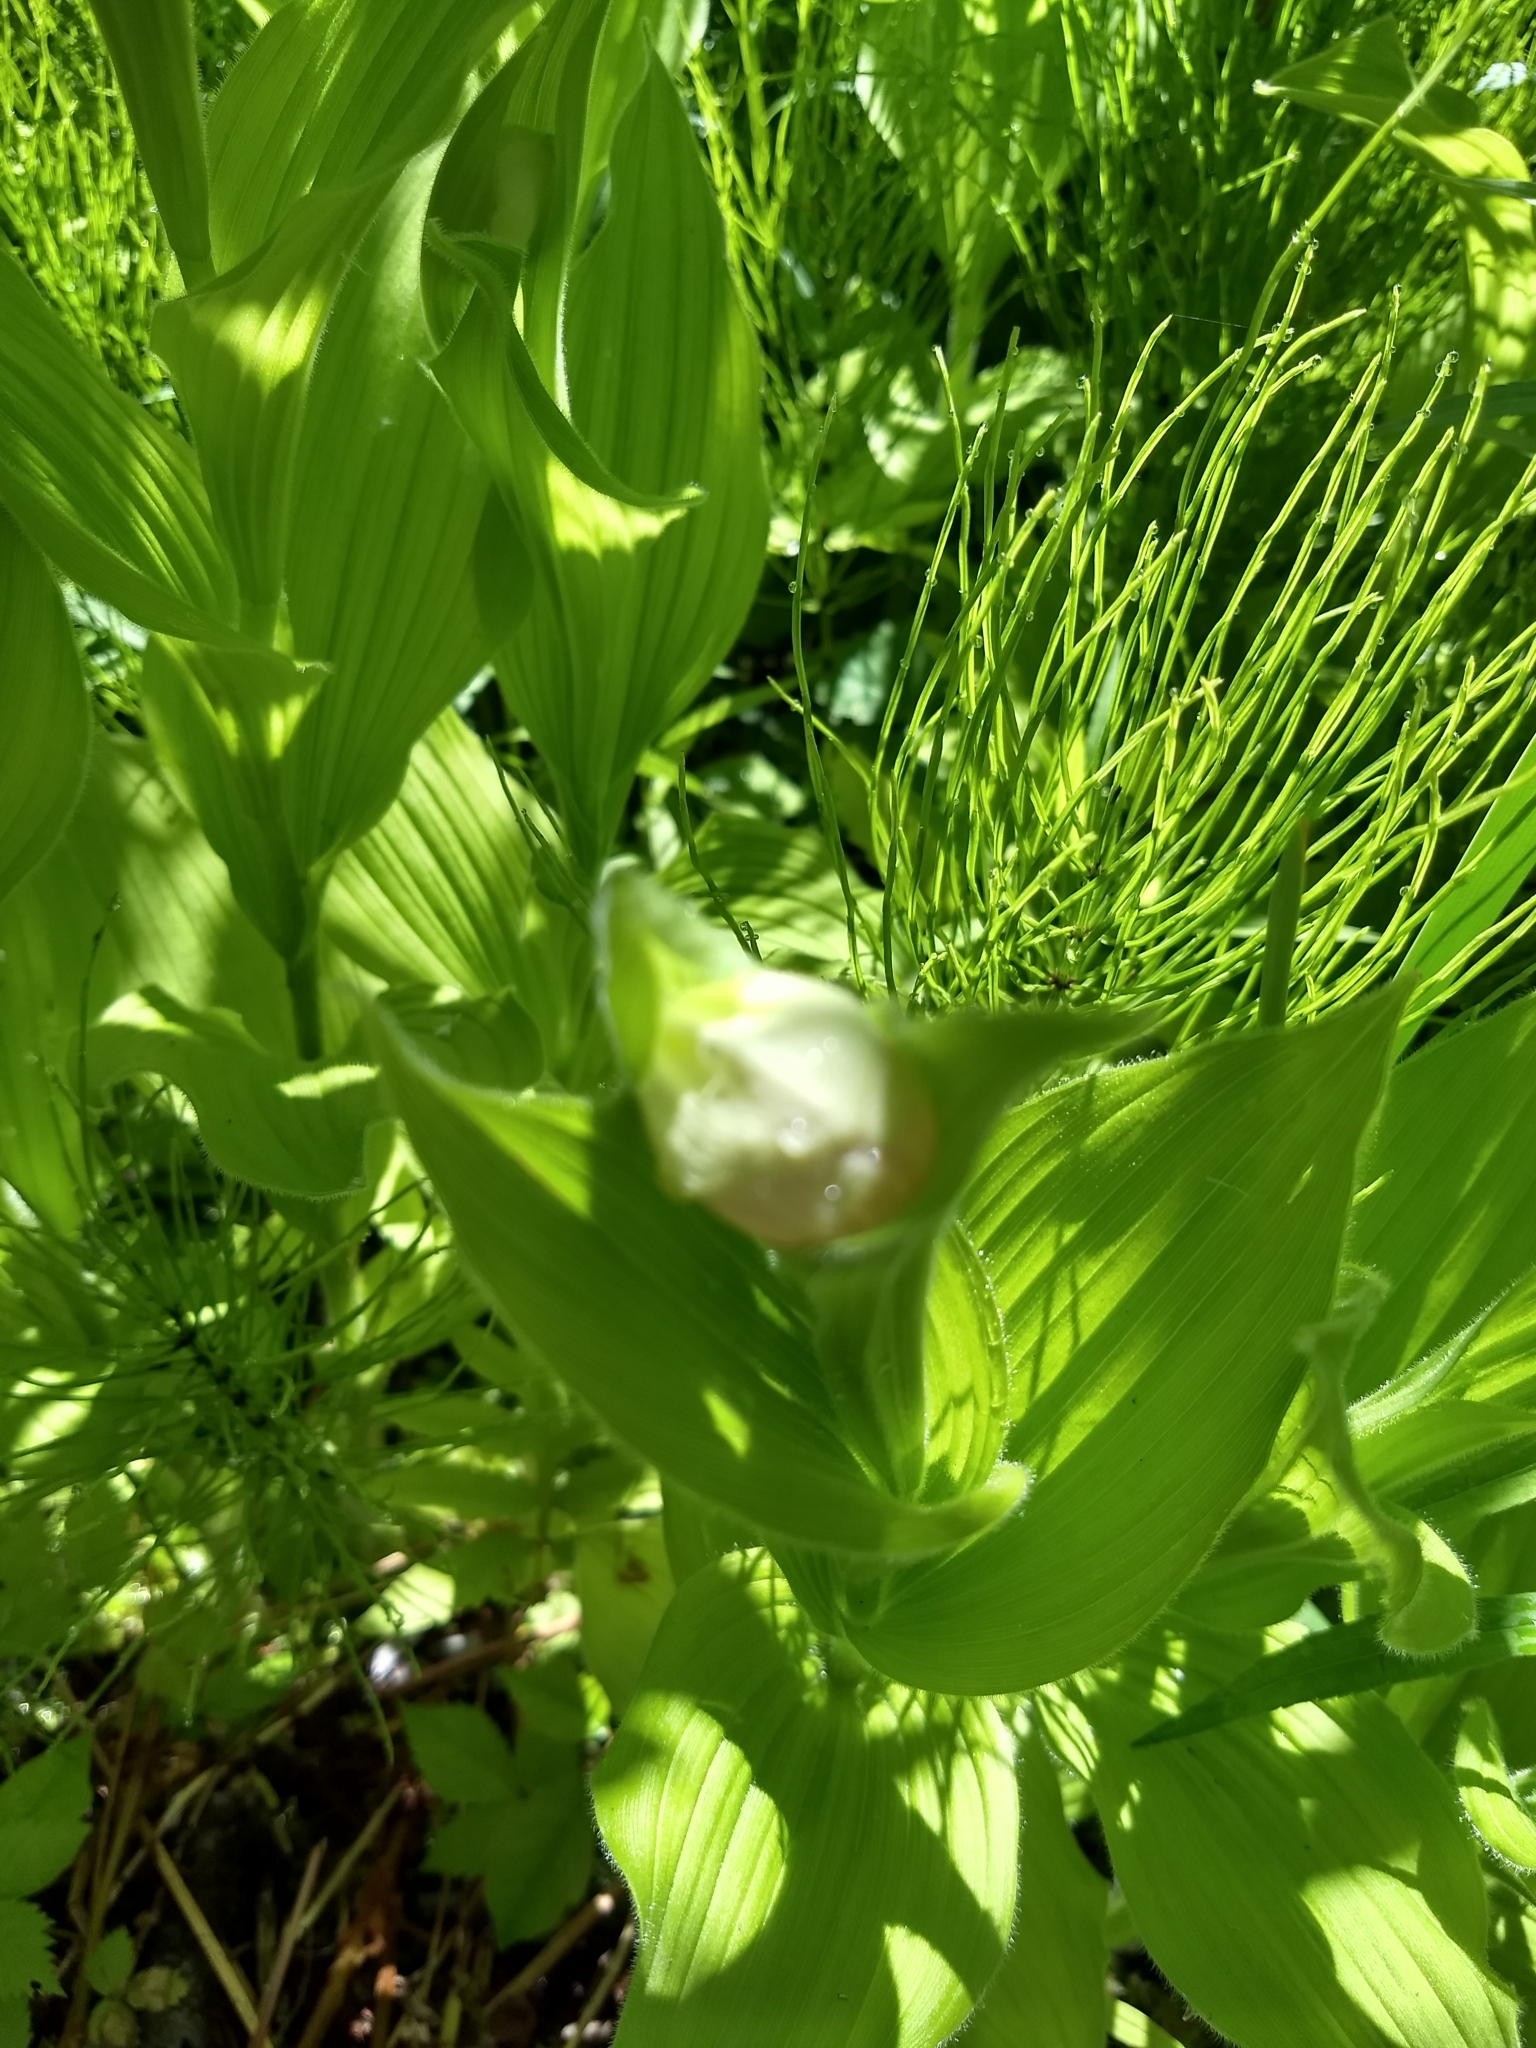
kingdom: Plantae
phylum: Tracheophyta
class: Liliopsida
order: Asparagales
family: Orchidaceae
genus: Cypripedium
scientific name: Cypripedium reginae
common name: Queen lady's-slipper
